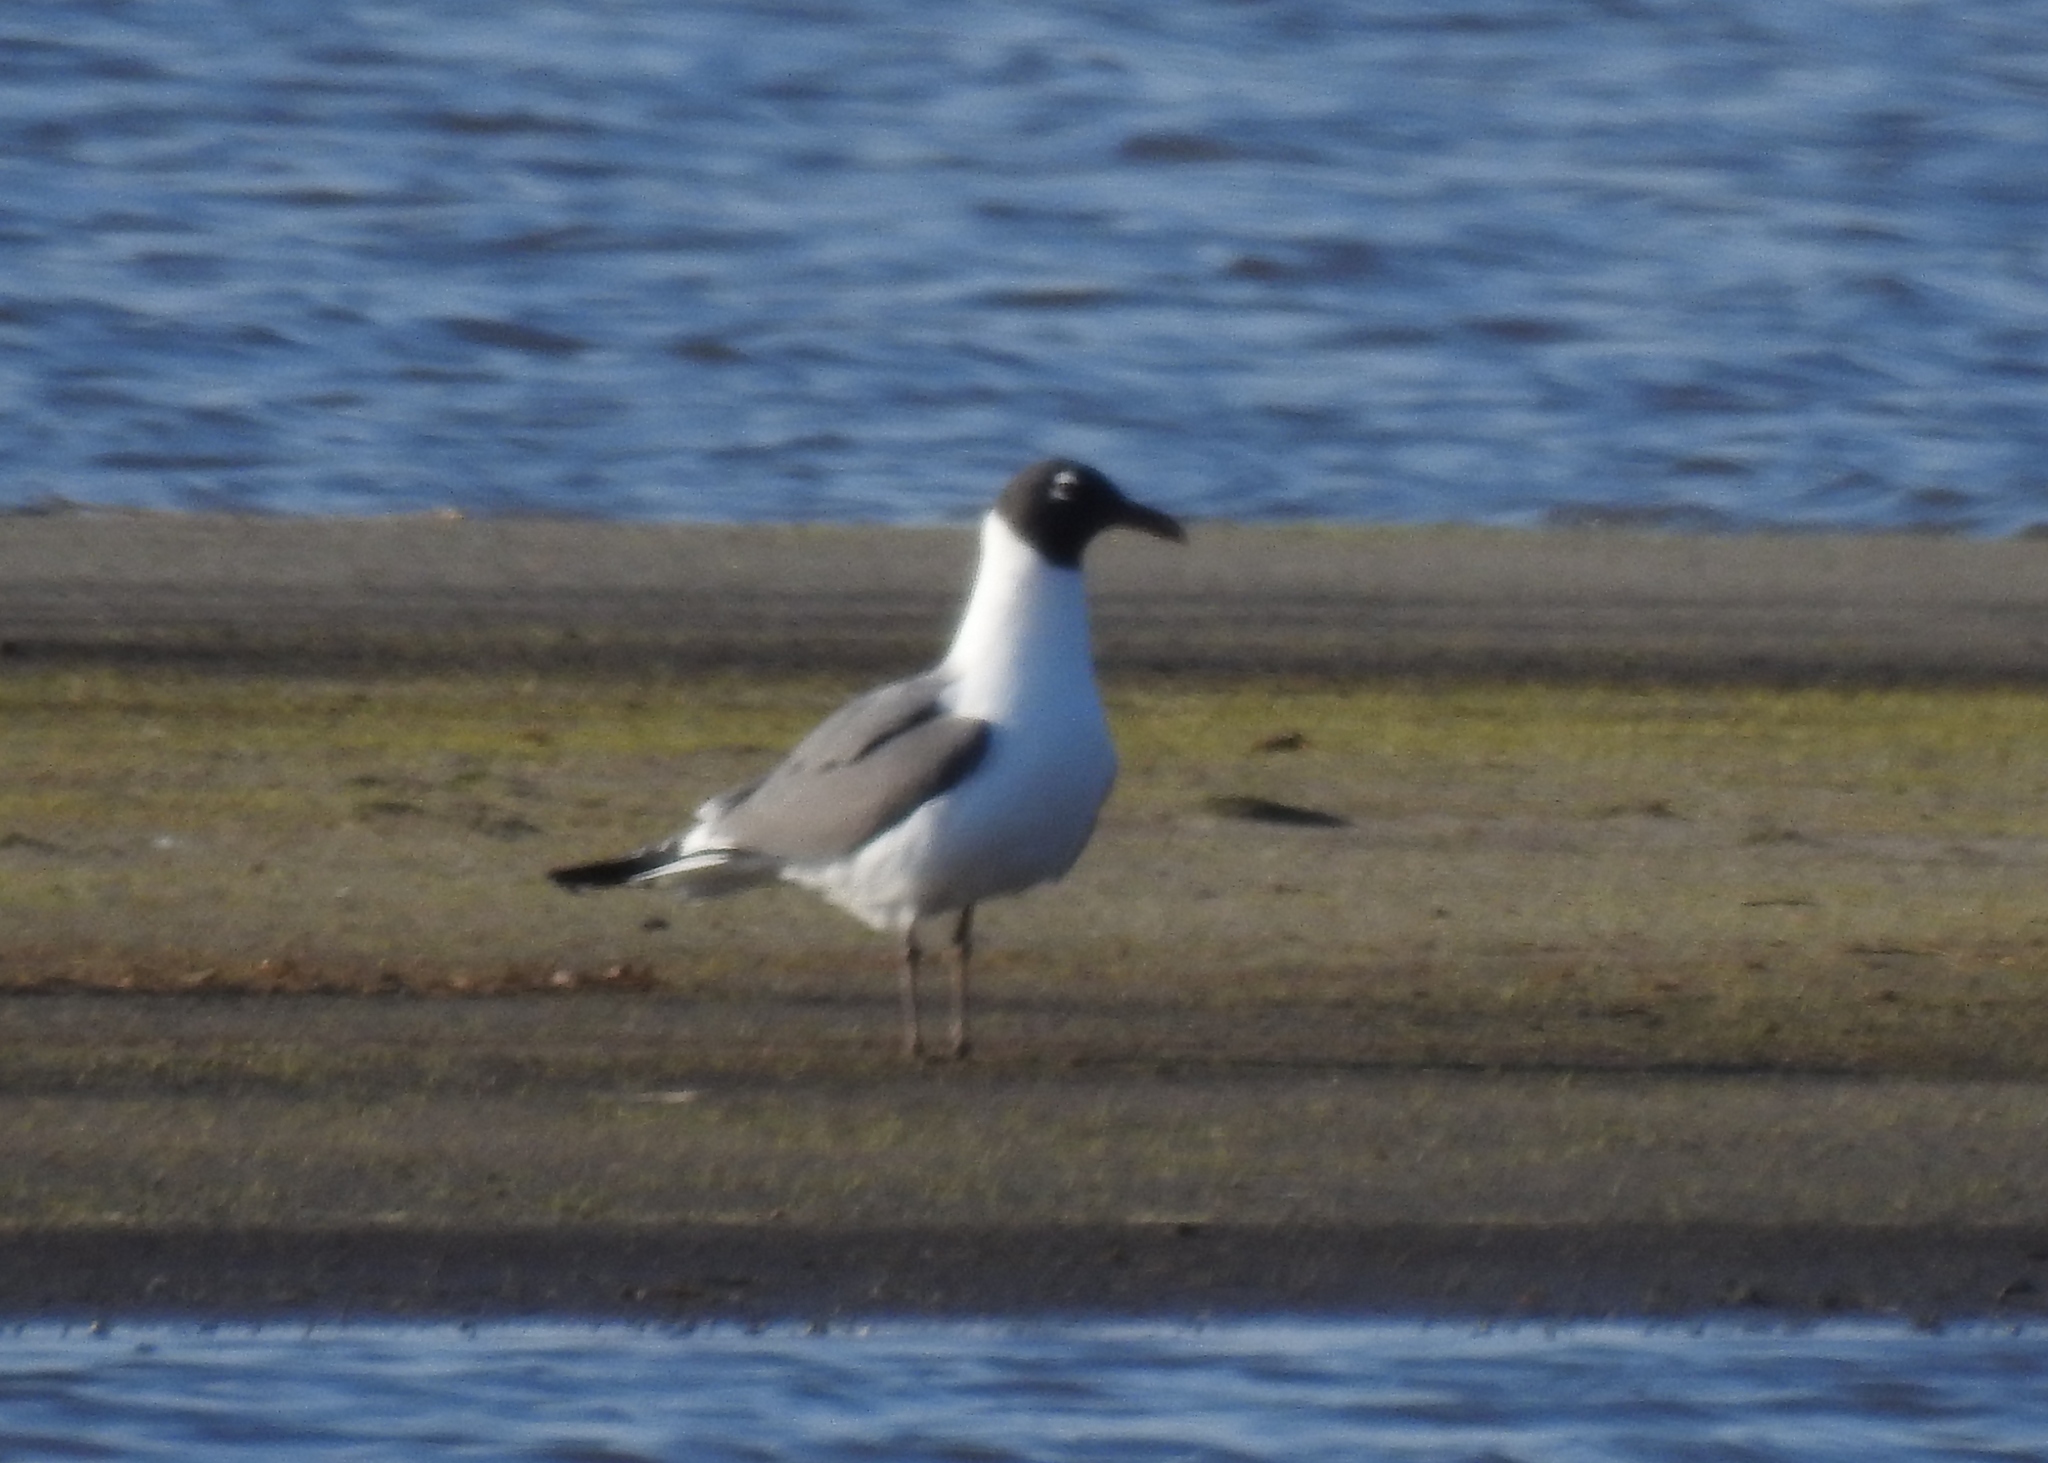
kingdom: Animalia
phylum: Chordata
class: Aves
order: Charadriiformes
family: Laridae
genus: Leucophaeus
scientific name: Leucophaeus atricilla
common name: Laughing gull
